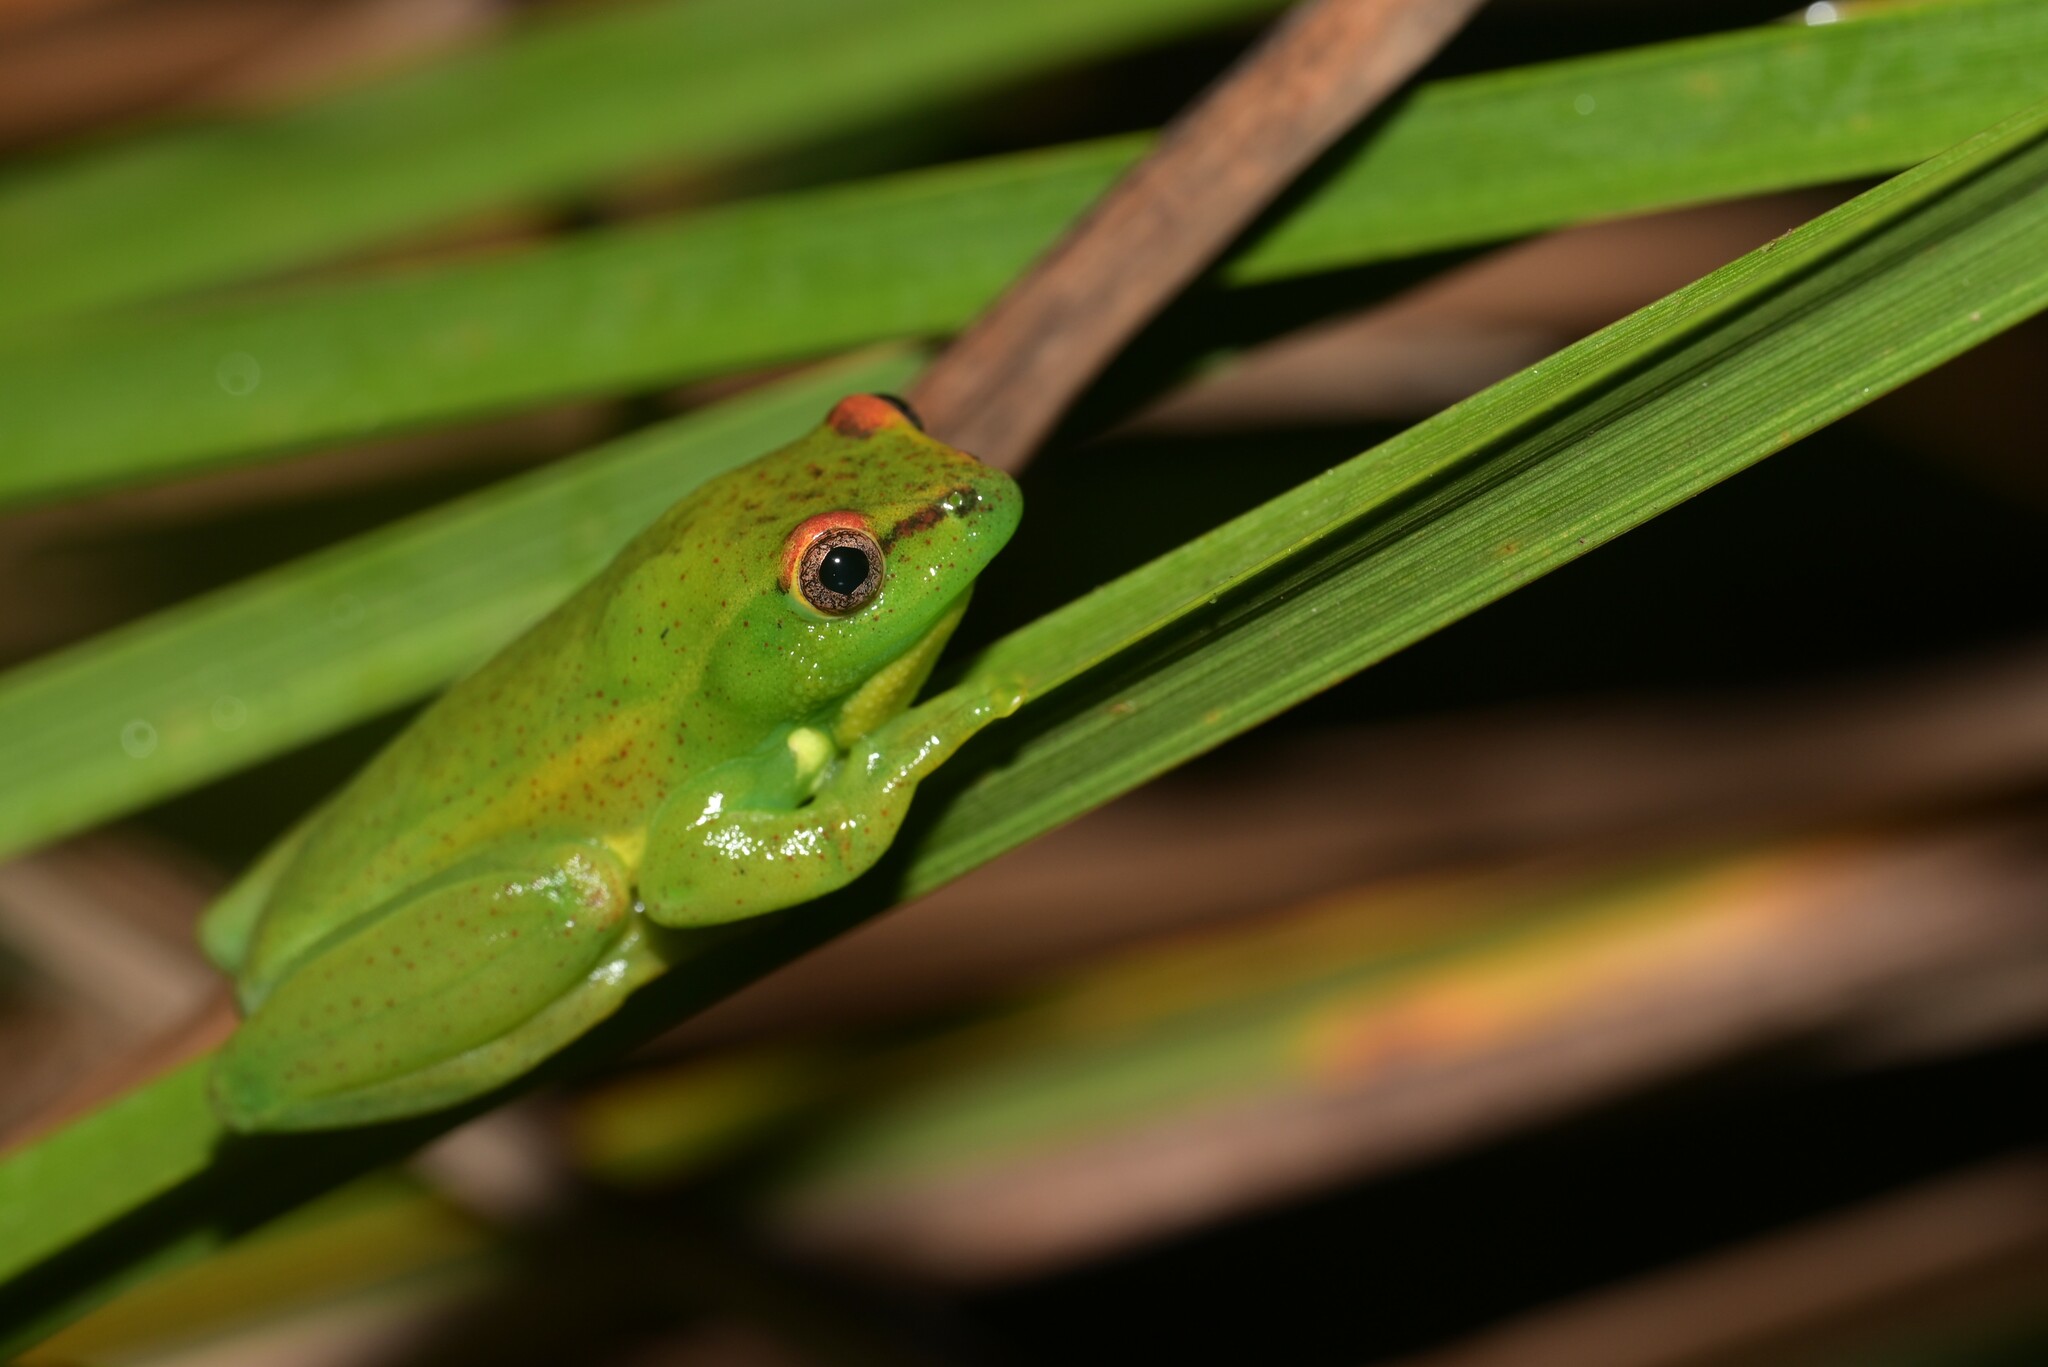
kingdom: Animalia
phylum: Chordata
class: Amphibia
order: Anura
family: Hyperoliidae
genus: Hyperolius
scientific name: Hyperolius pseudargus
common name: Mette's reed frog
